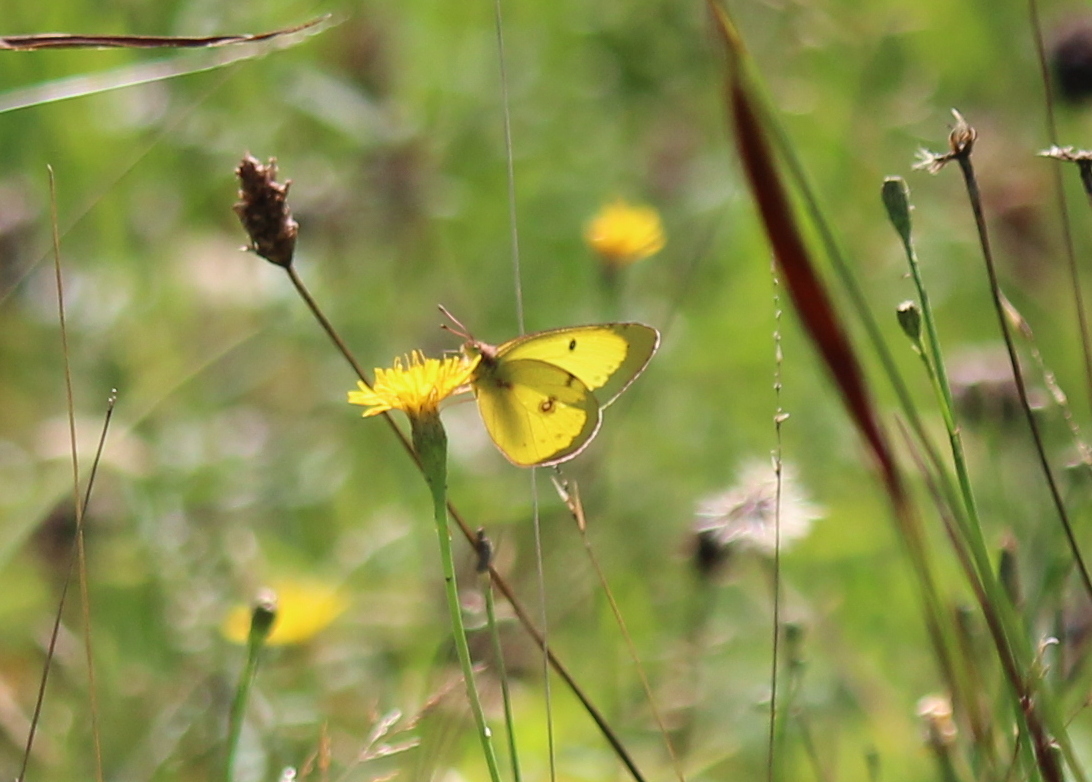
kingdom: Animalia
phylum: Arthropoda
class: Insecta
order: Lepidoptera
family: Pieridae
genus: Colias
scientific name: Colias philodice
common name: Clouded sulphur
